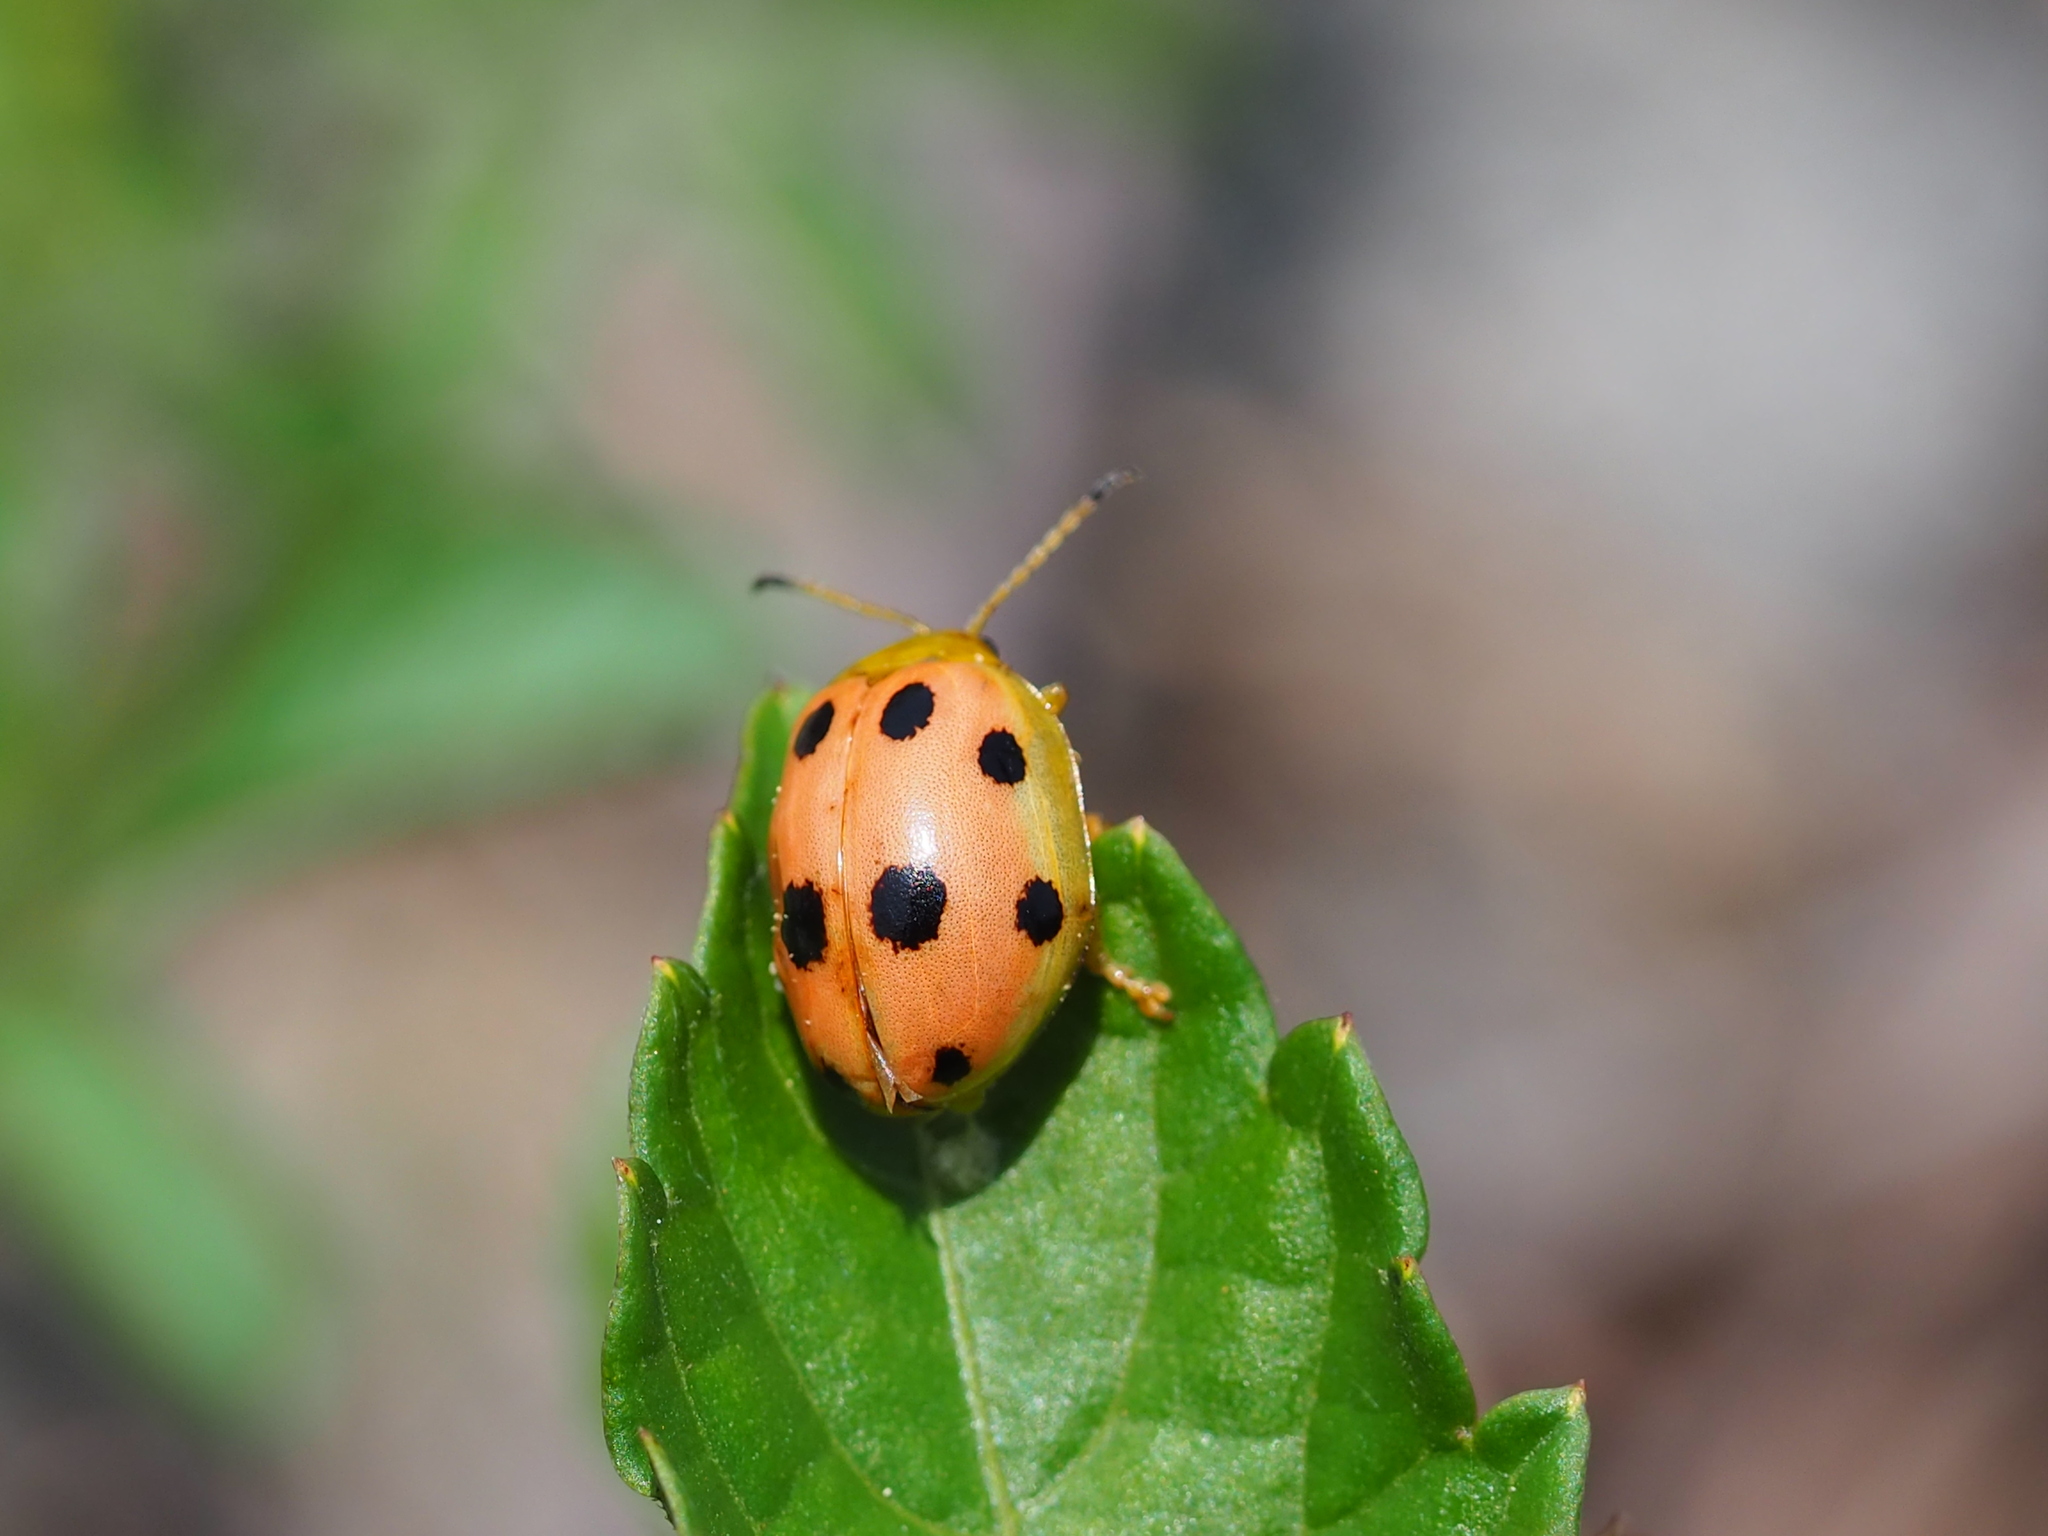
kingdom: Animalia
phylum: Arthropoda
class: Insecta
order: Coleoptera
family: Chrysomelidae
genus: Oides
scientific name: Oides decempunctata
